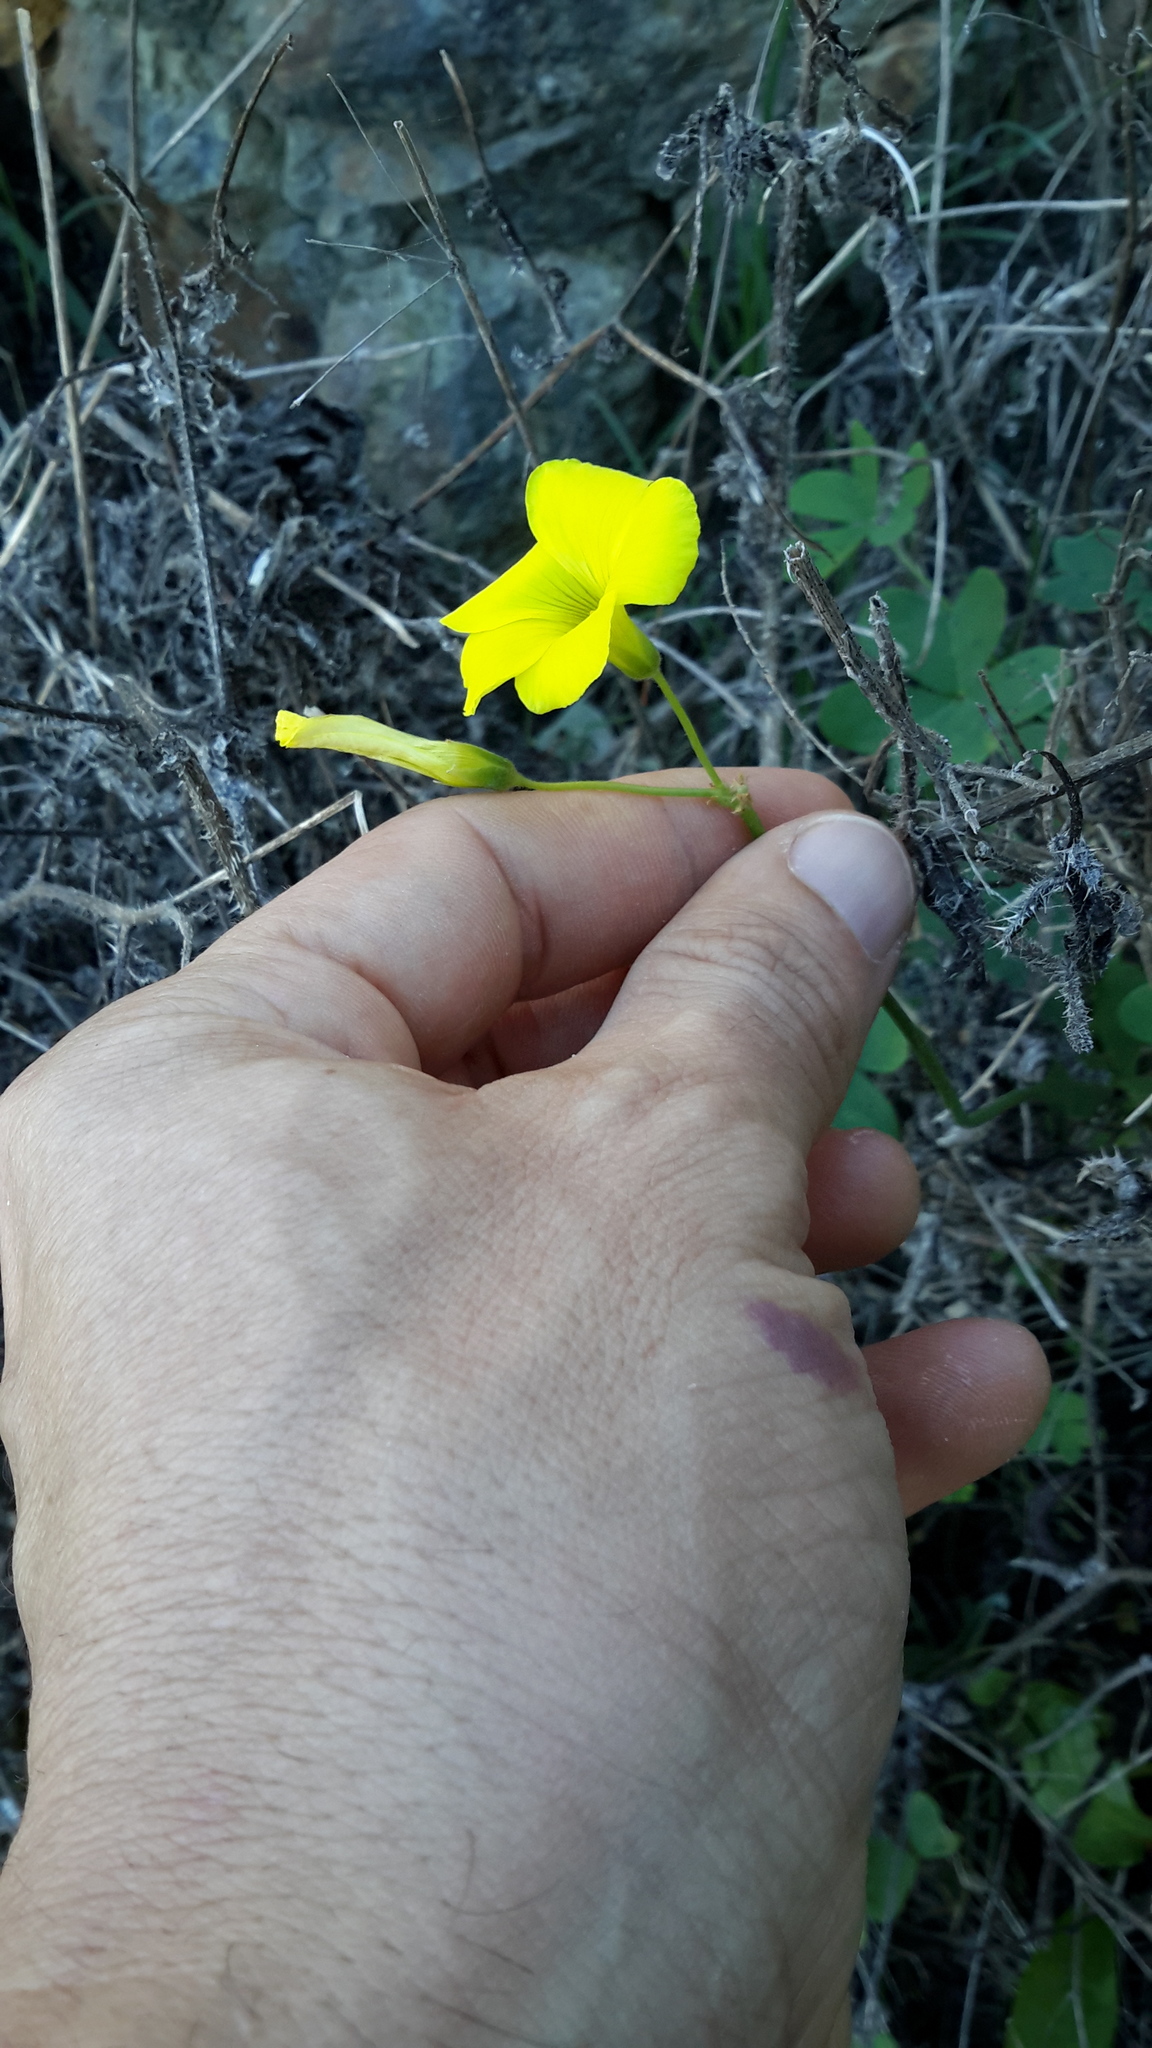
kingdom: Plantae
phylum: Tracheophyta
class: Magnoliopsida
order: Oxalidales
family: Oxalidaceae
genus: Oxalis
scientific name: Oxalis pes-caprae
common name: Bermuda-buttercup
